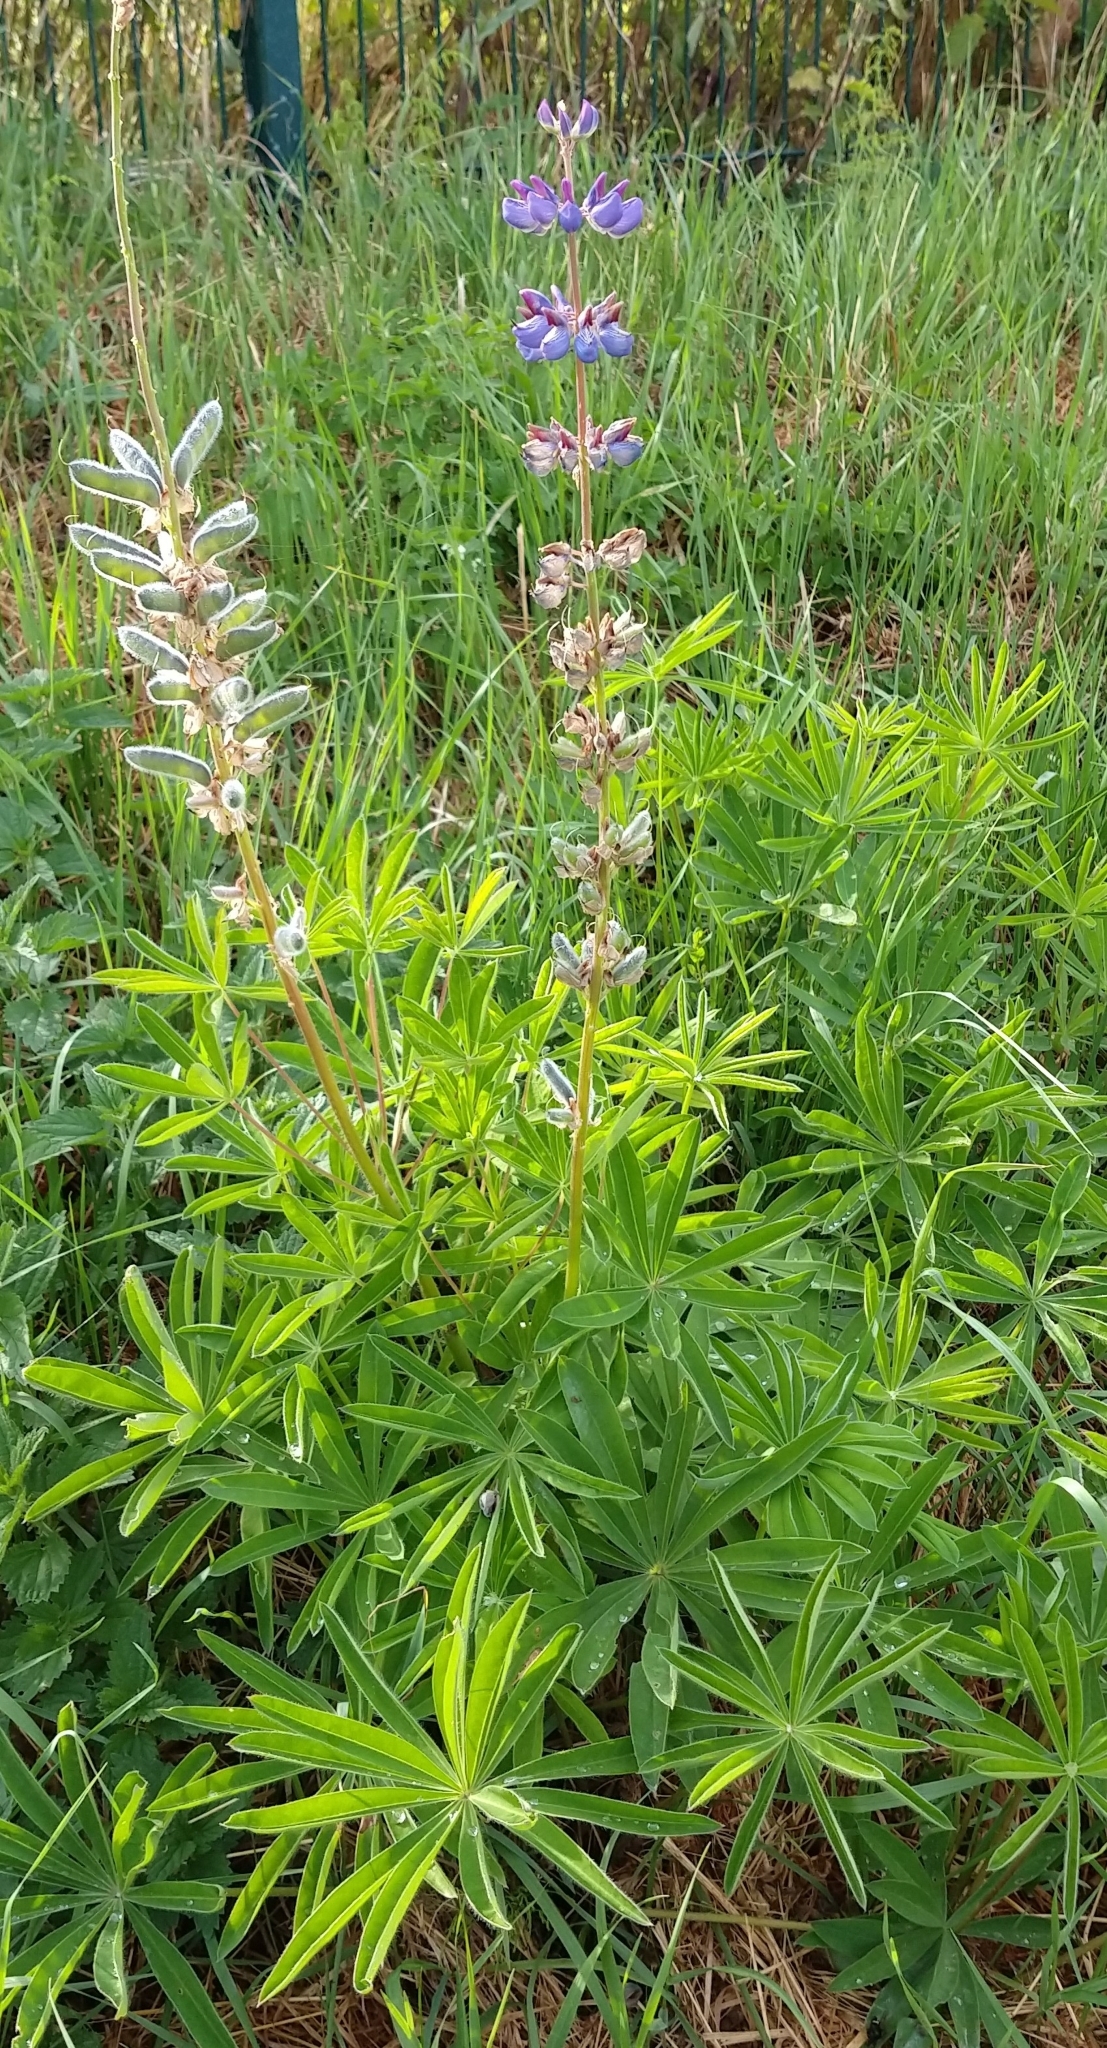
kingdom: Plantae
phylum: Tracheophyta
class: Magnoliopsida
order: Fabales
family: Fabaceae
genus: Lupinus
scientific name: Lupinus polyphyllus
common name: Garden lupin
